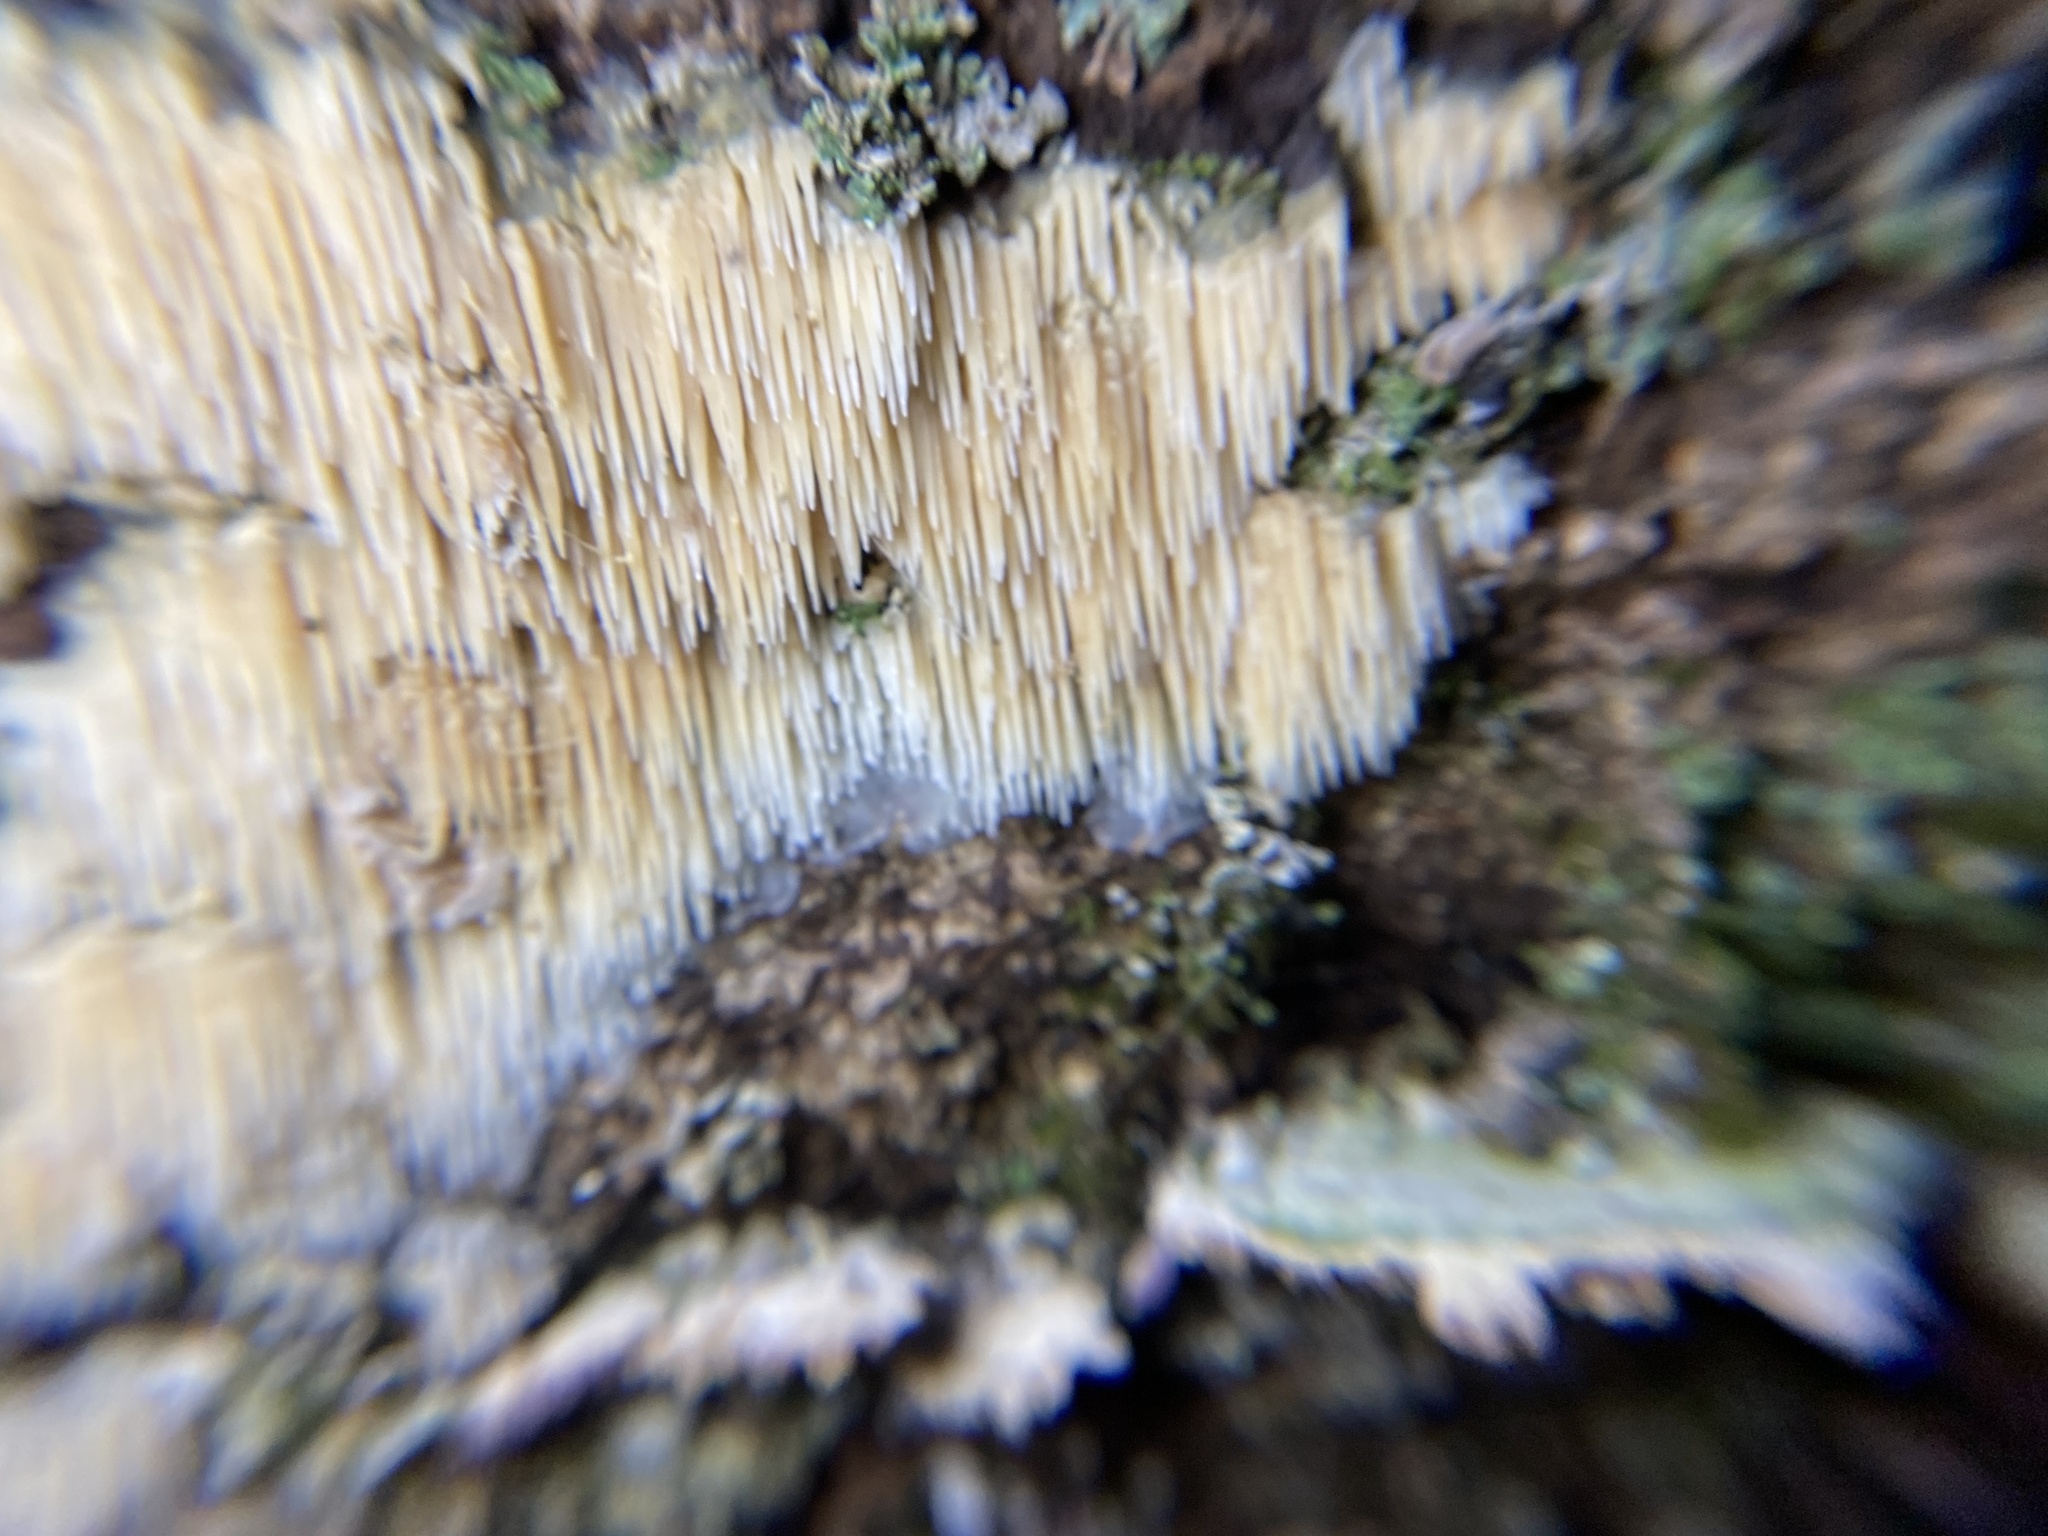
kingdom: Fungi
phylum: Basidiomycota
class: Agaricomycetes
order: Agaricales
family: Radulomycetaceae
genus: Radulomyces
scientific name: Radulomyces copelandii
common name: Asian beauty
